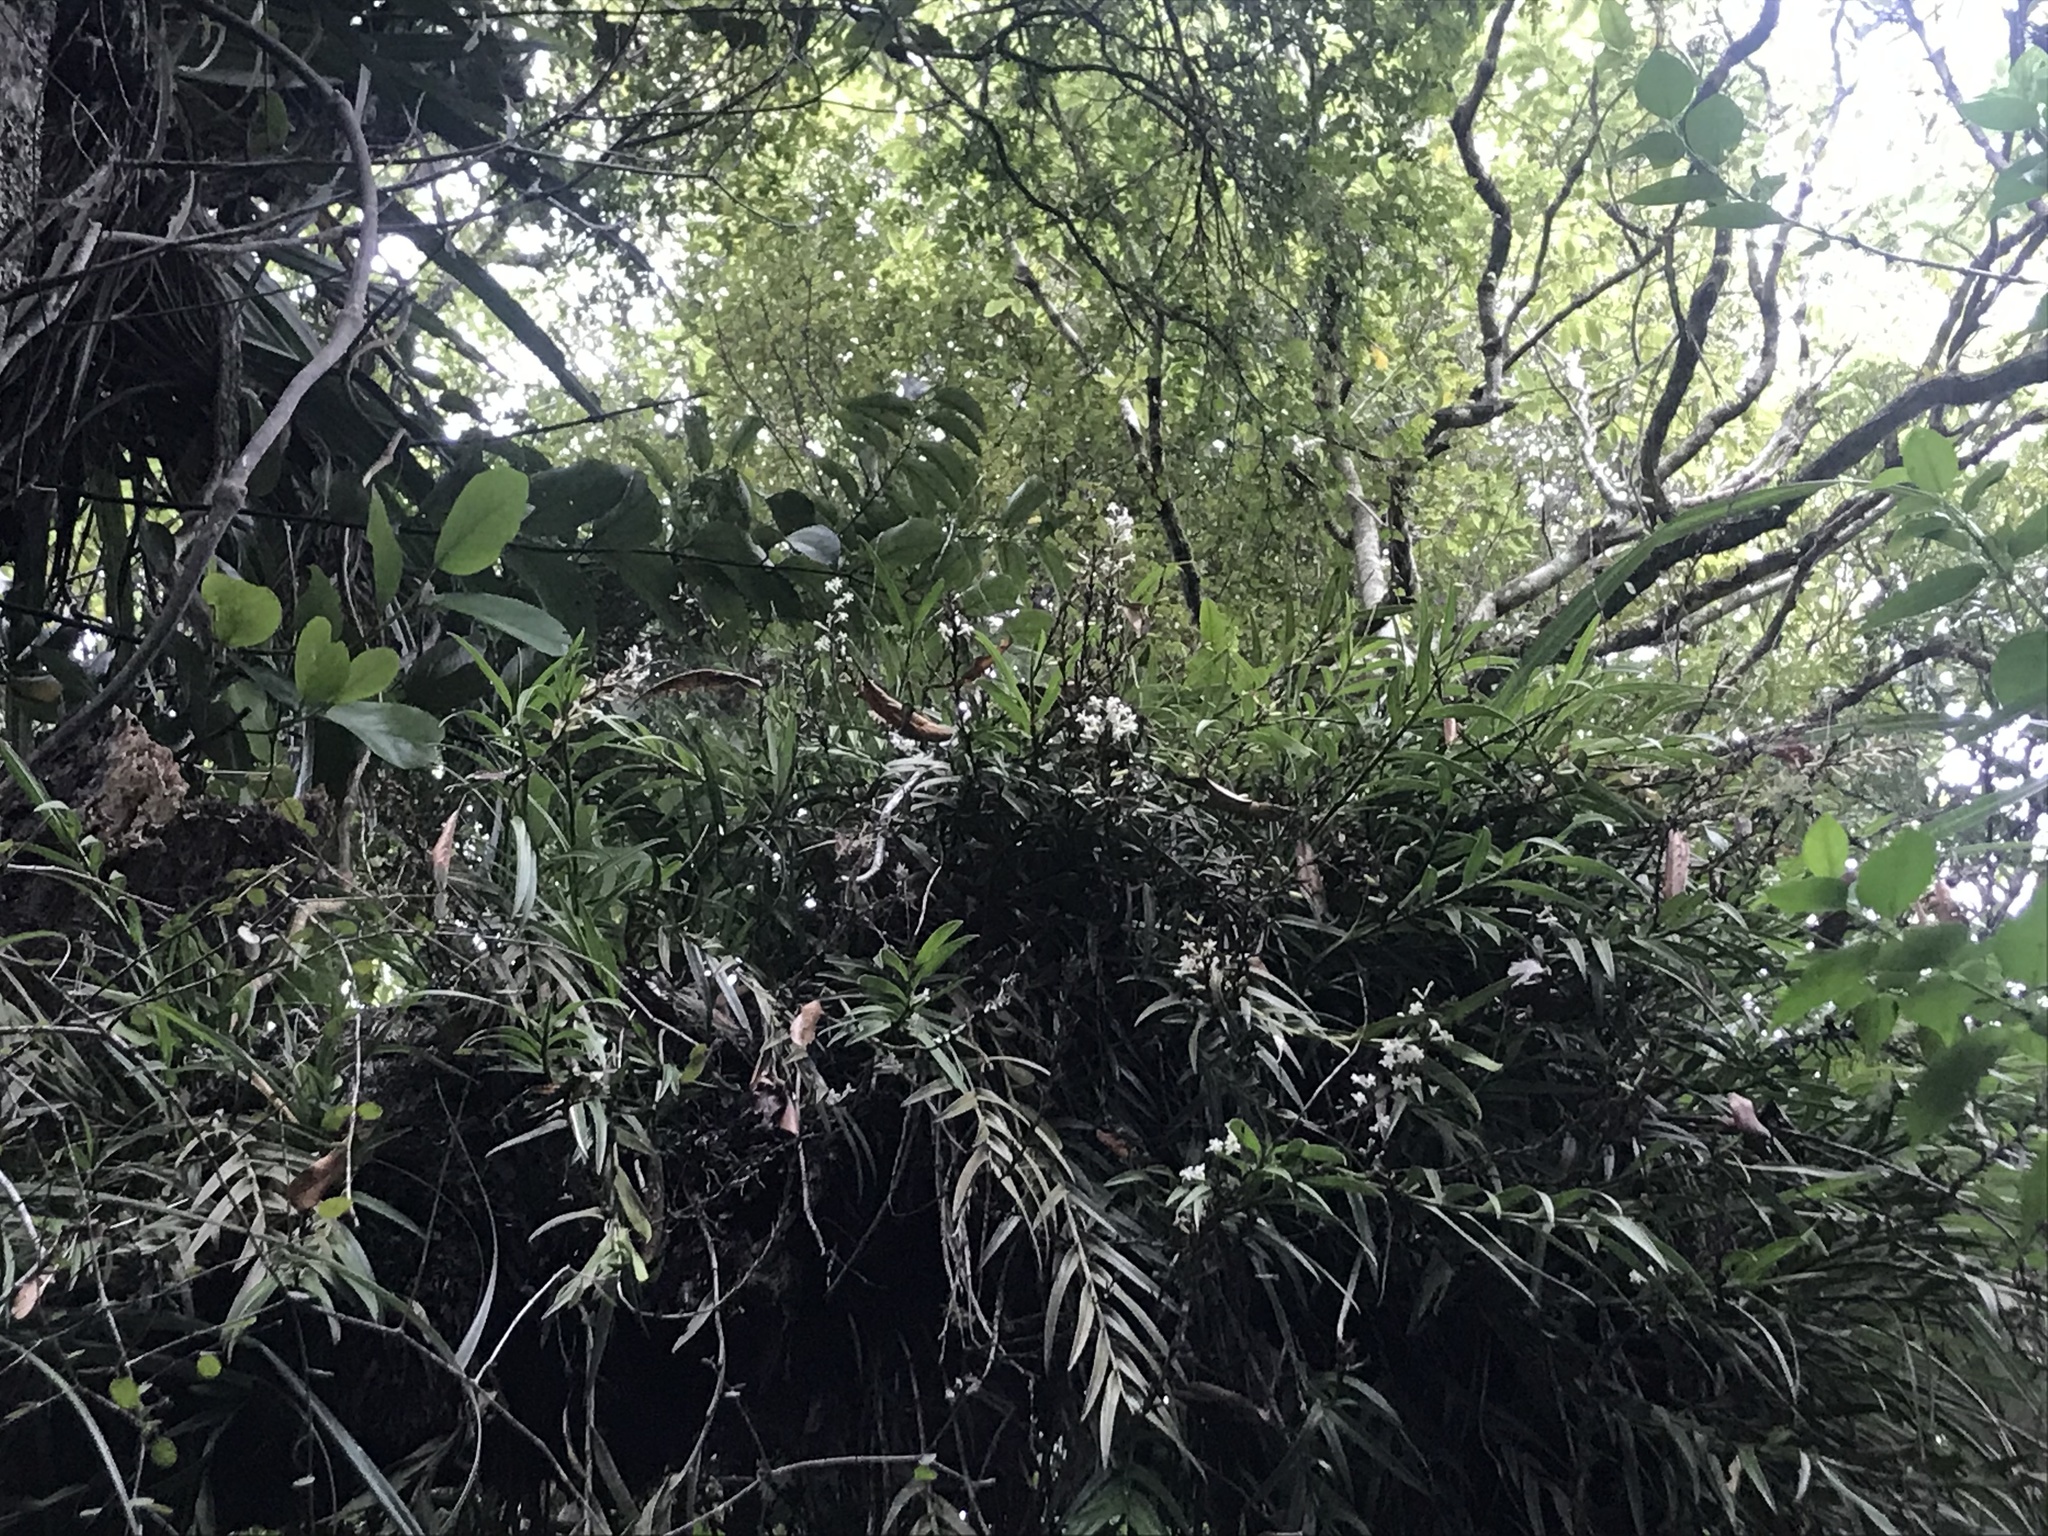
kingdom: Plantae
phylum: Tracheophyta
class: Liliopsida
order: Asparagales
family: Orchidaceae
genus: Earina
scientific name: Earina autumnalis
